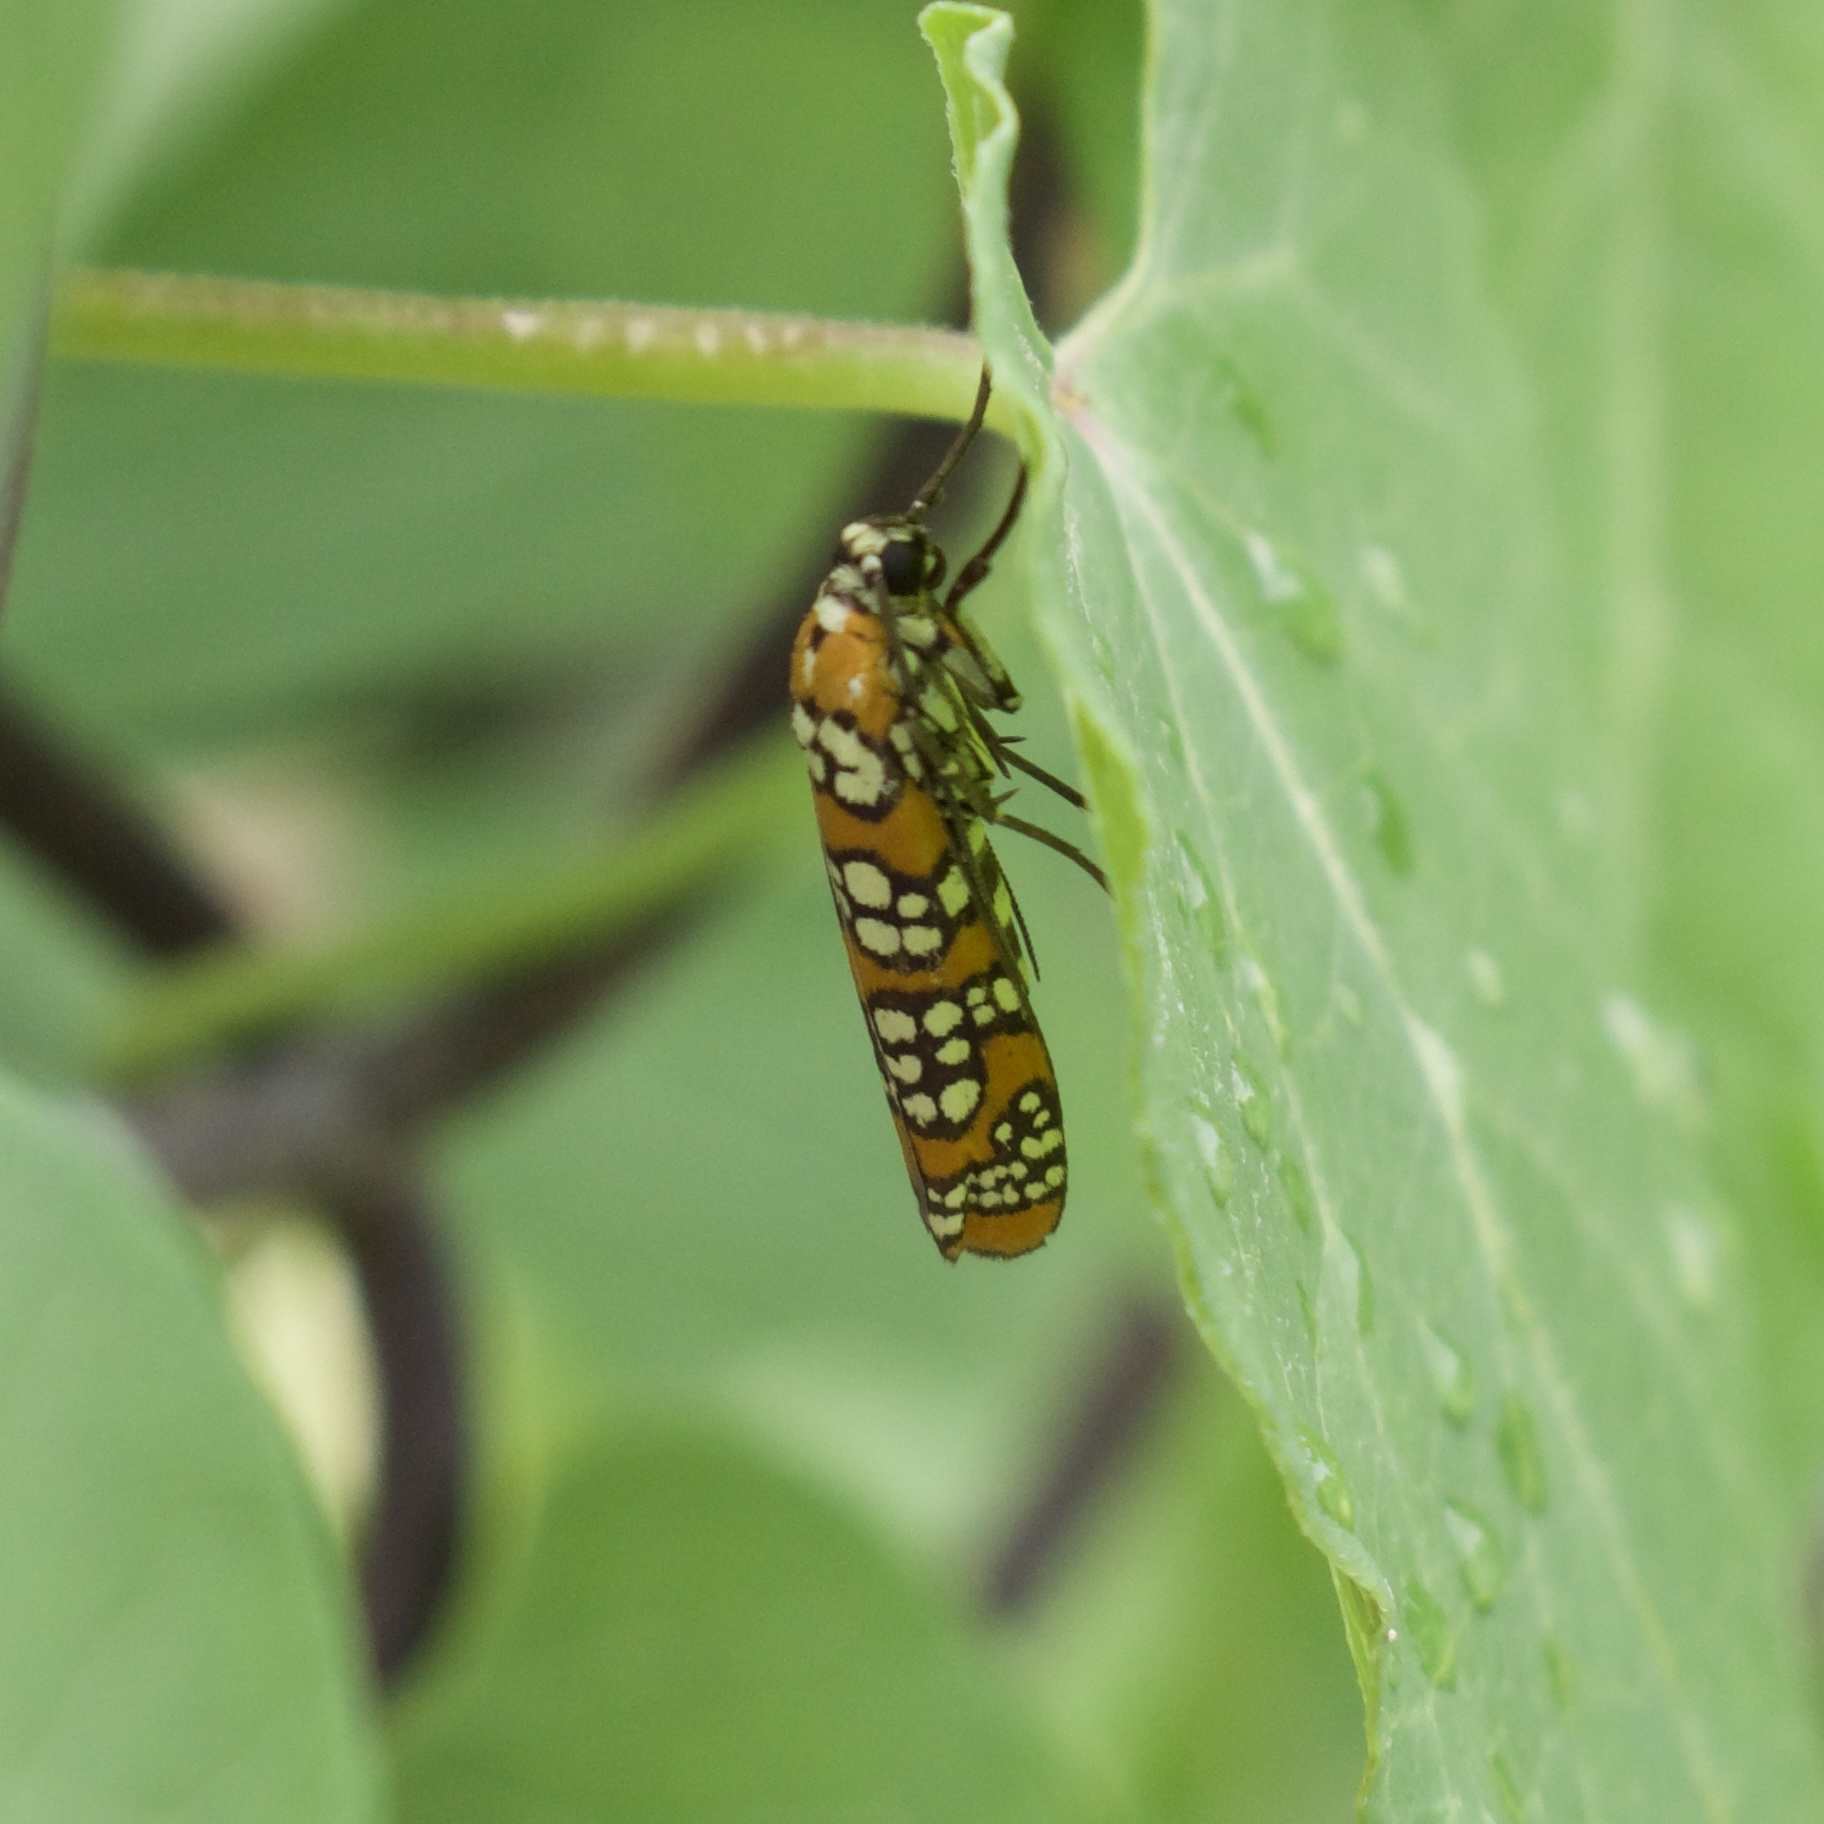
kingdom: Animalia
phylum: Arthropoda
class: Insecta
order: Lepidoptera
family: Attevidae
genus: Atteva
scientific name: Atteva punctella
